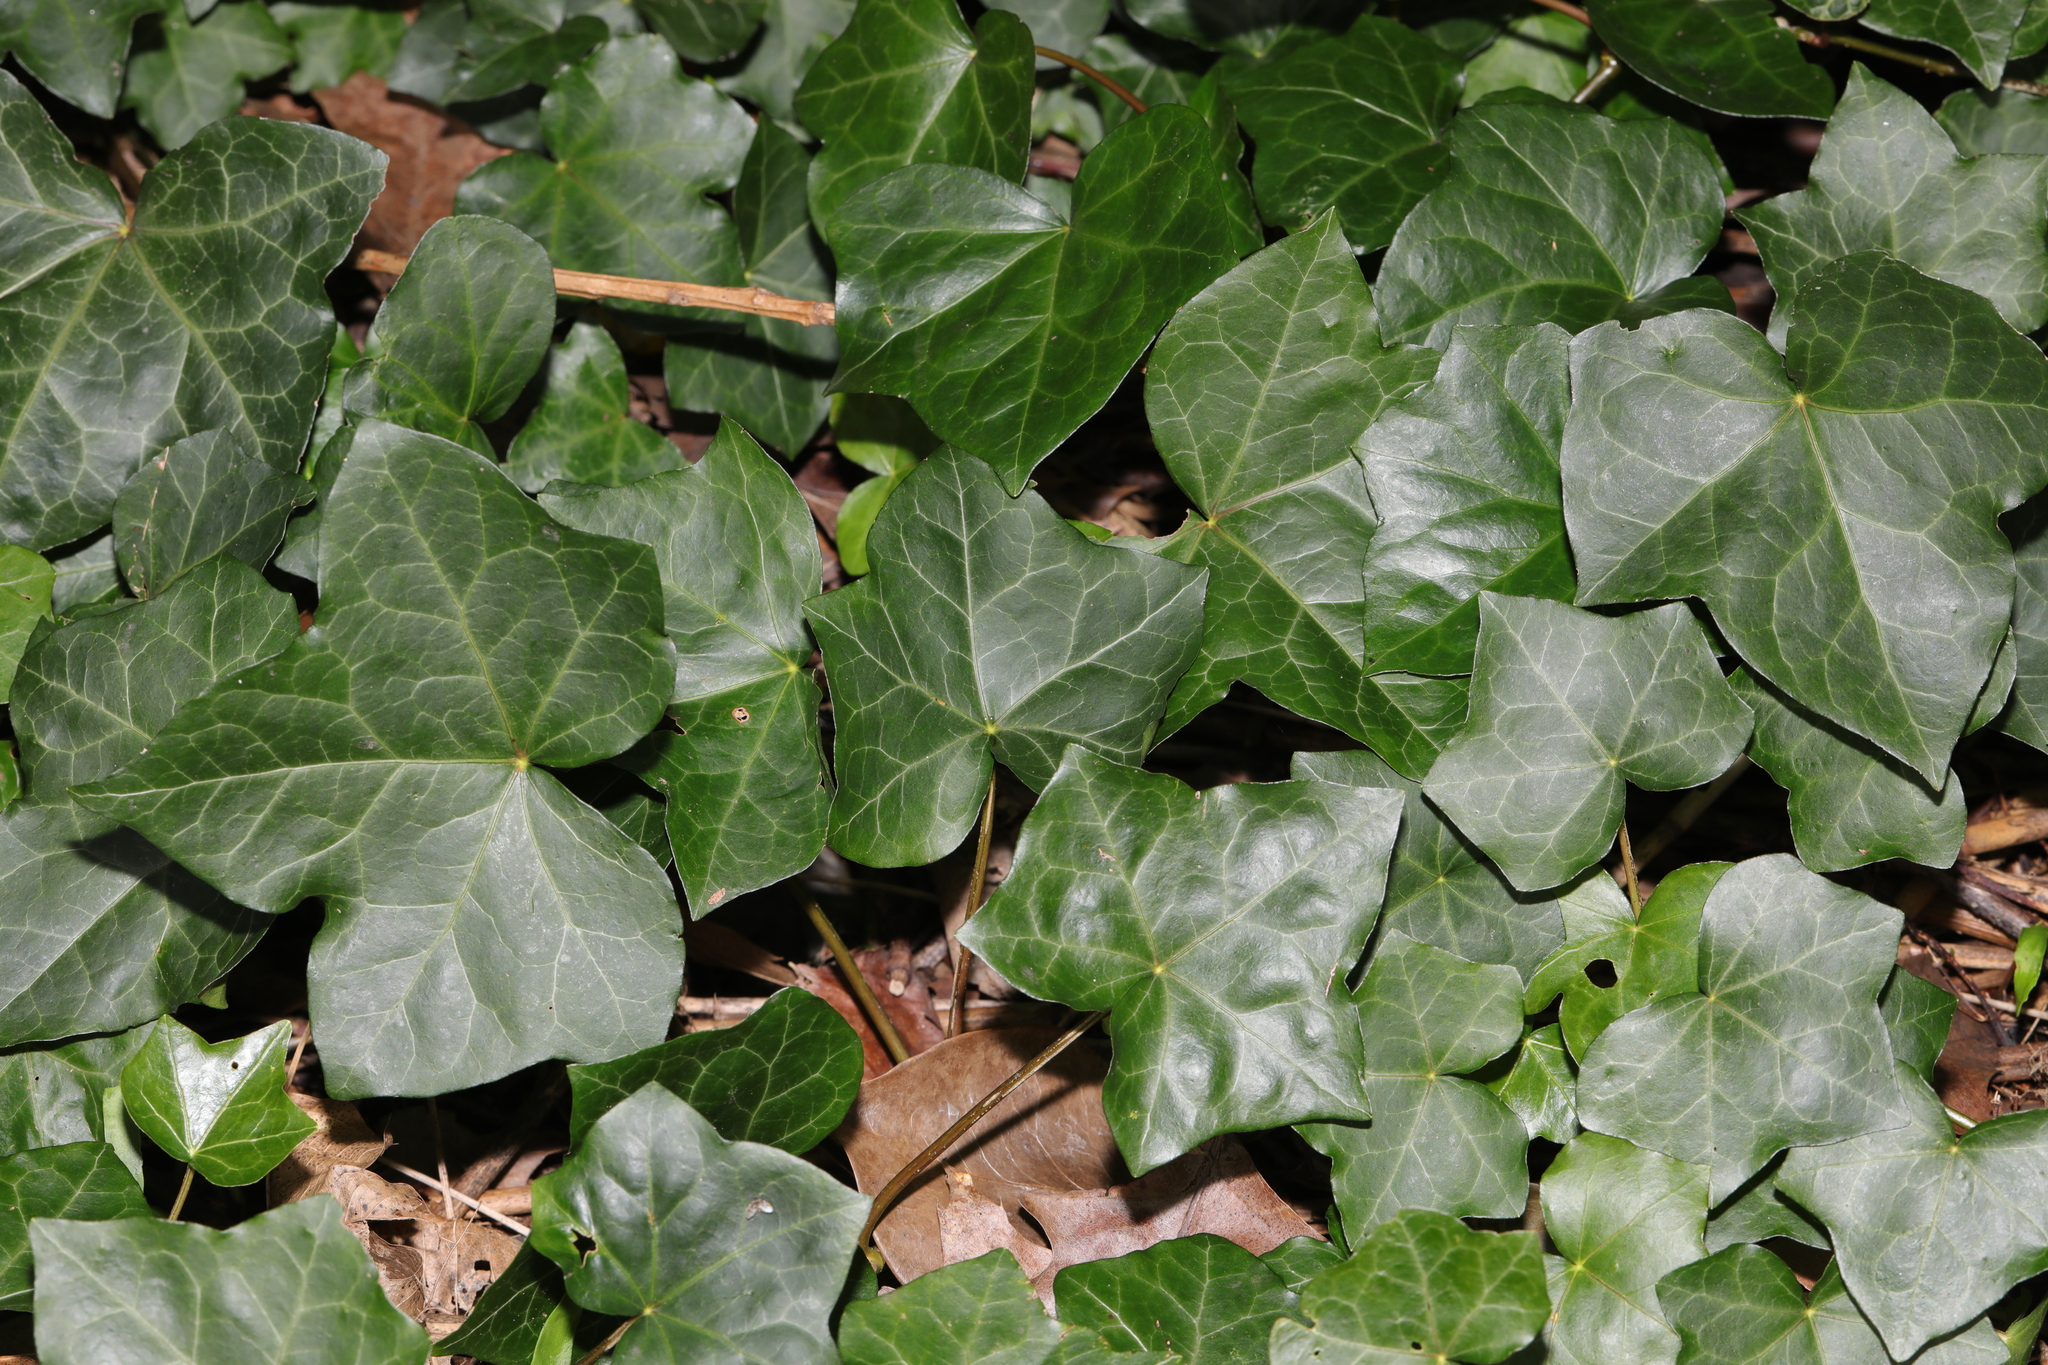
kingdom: Plantae
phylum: Tracheophyta
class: Magnoliopsida
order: Apiales
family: Araliaceae
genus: Hedera
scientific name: Hedera helix
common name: Ivy
